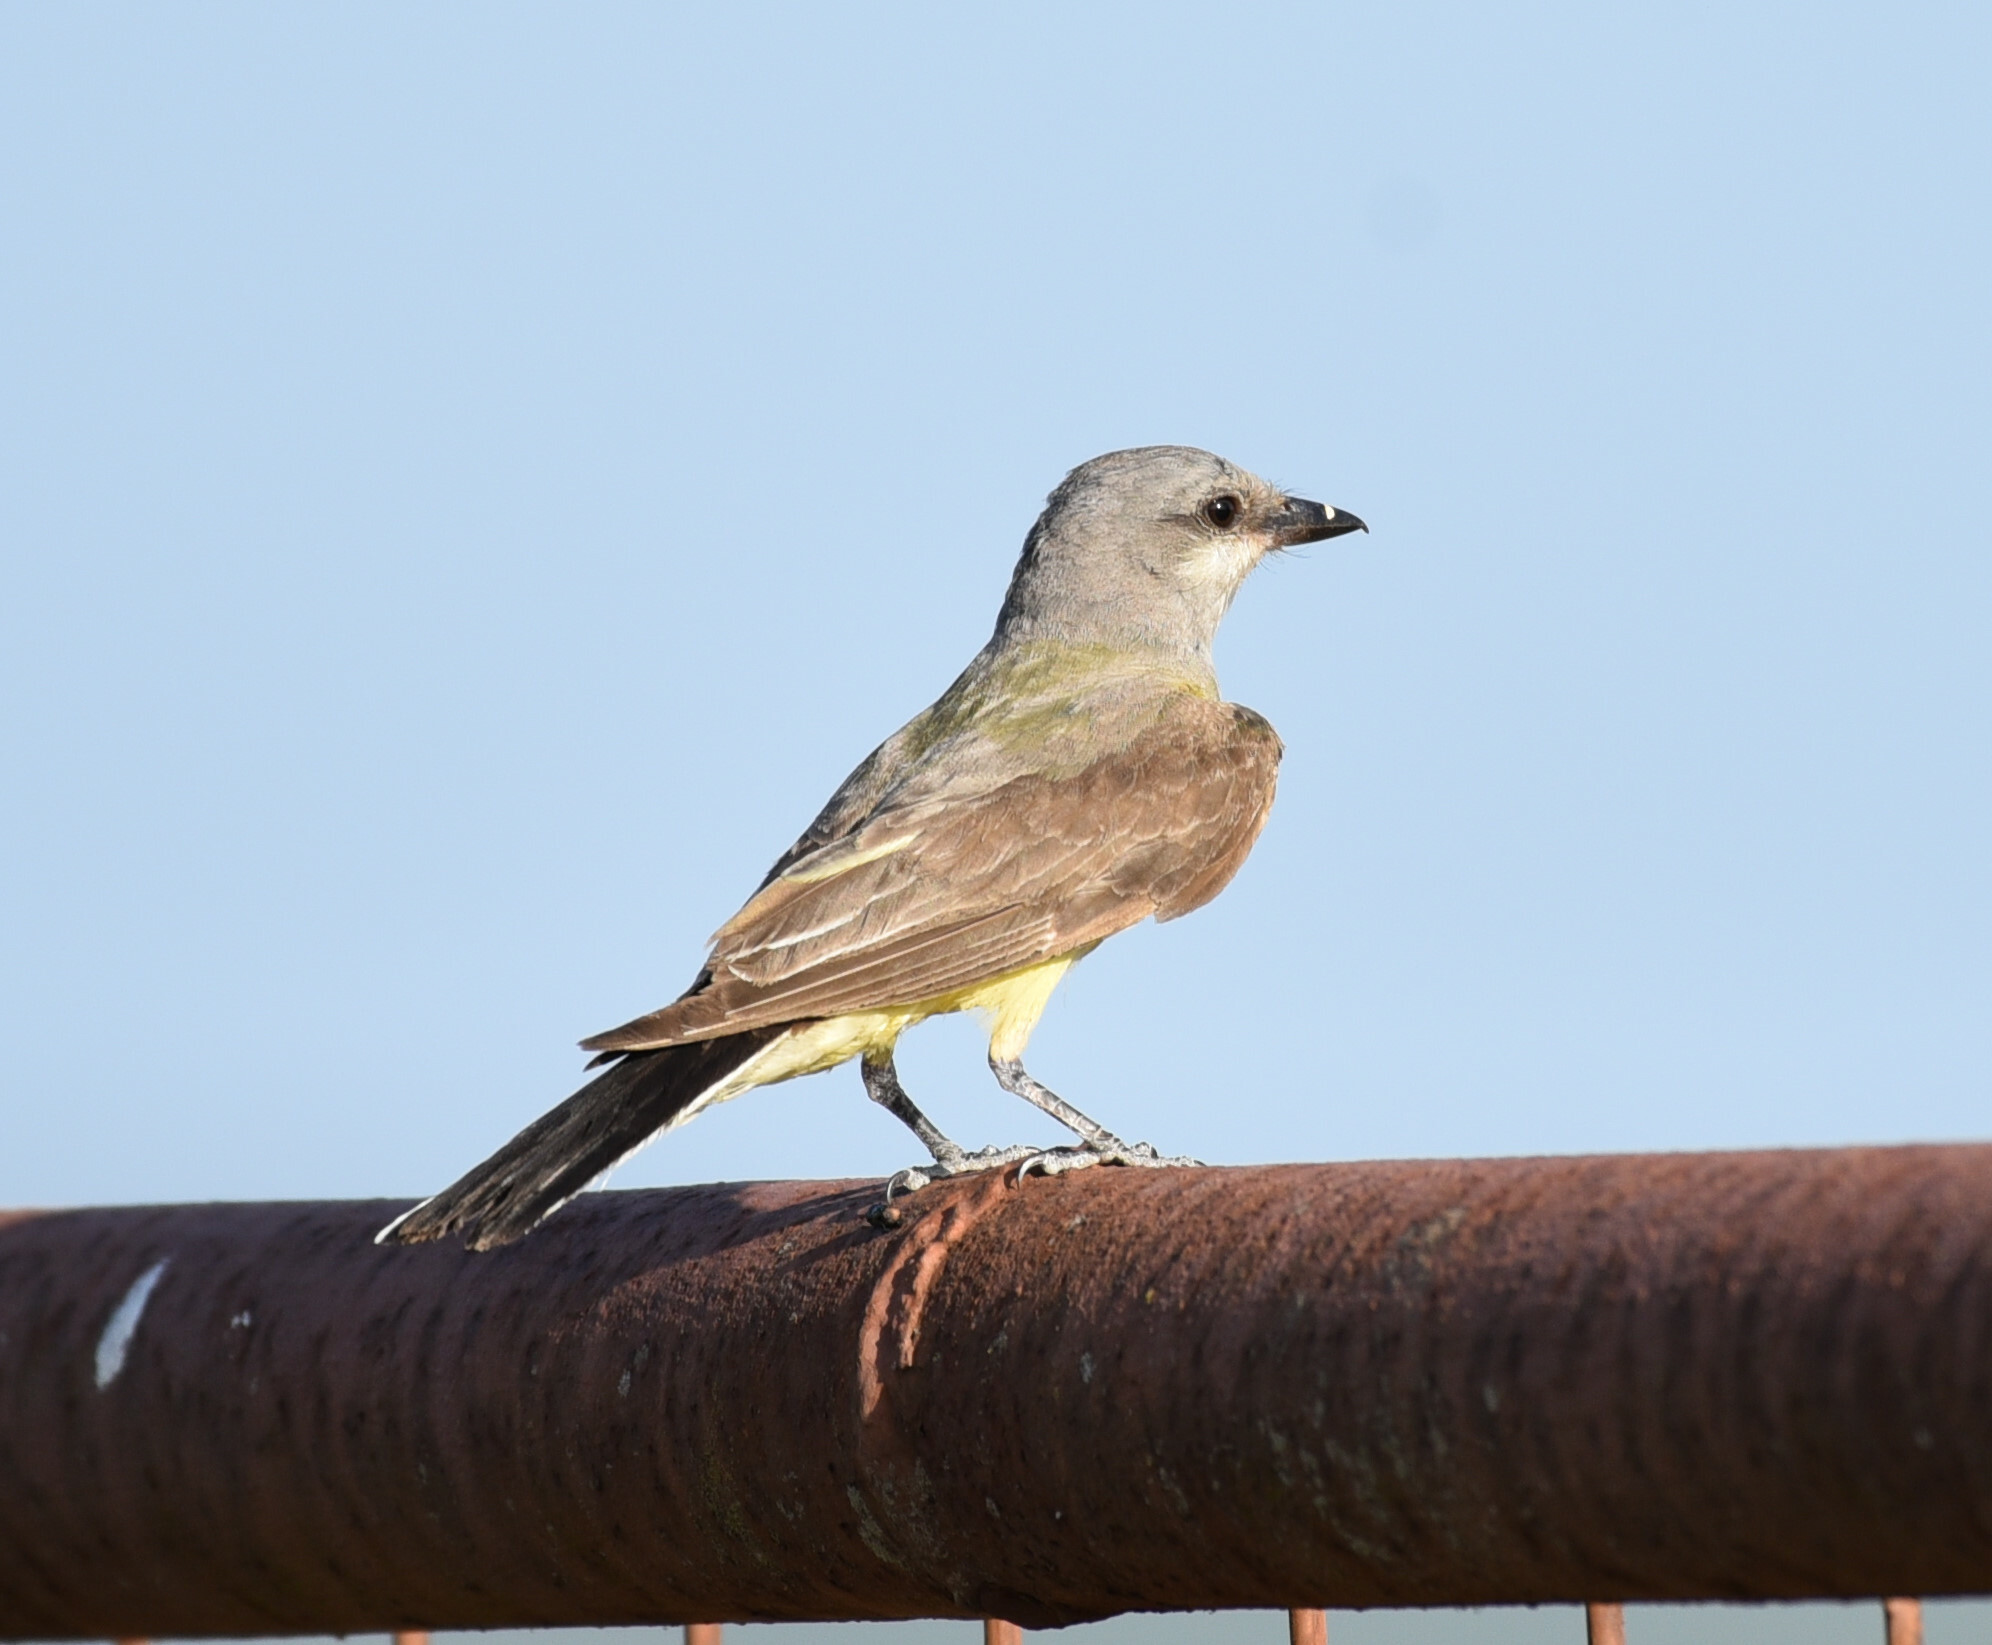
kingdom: Animalia
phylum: Chordata
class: Aves
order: Passeriformes
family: Tyrannidae
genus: Tyrannus
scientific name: Tyrannus verticalis
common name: Western kingbird
